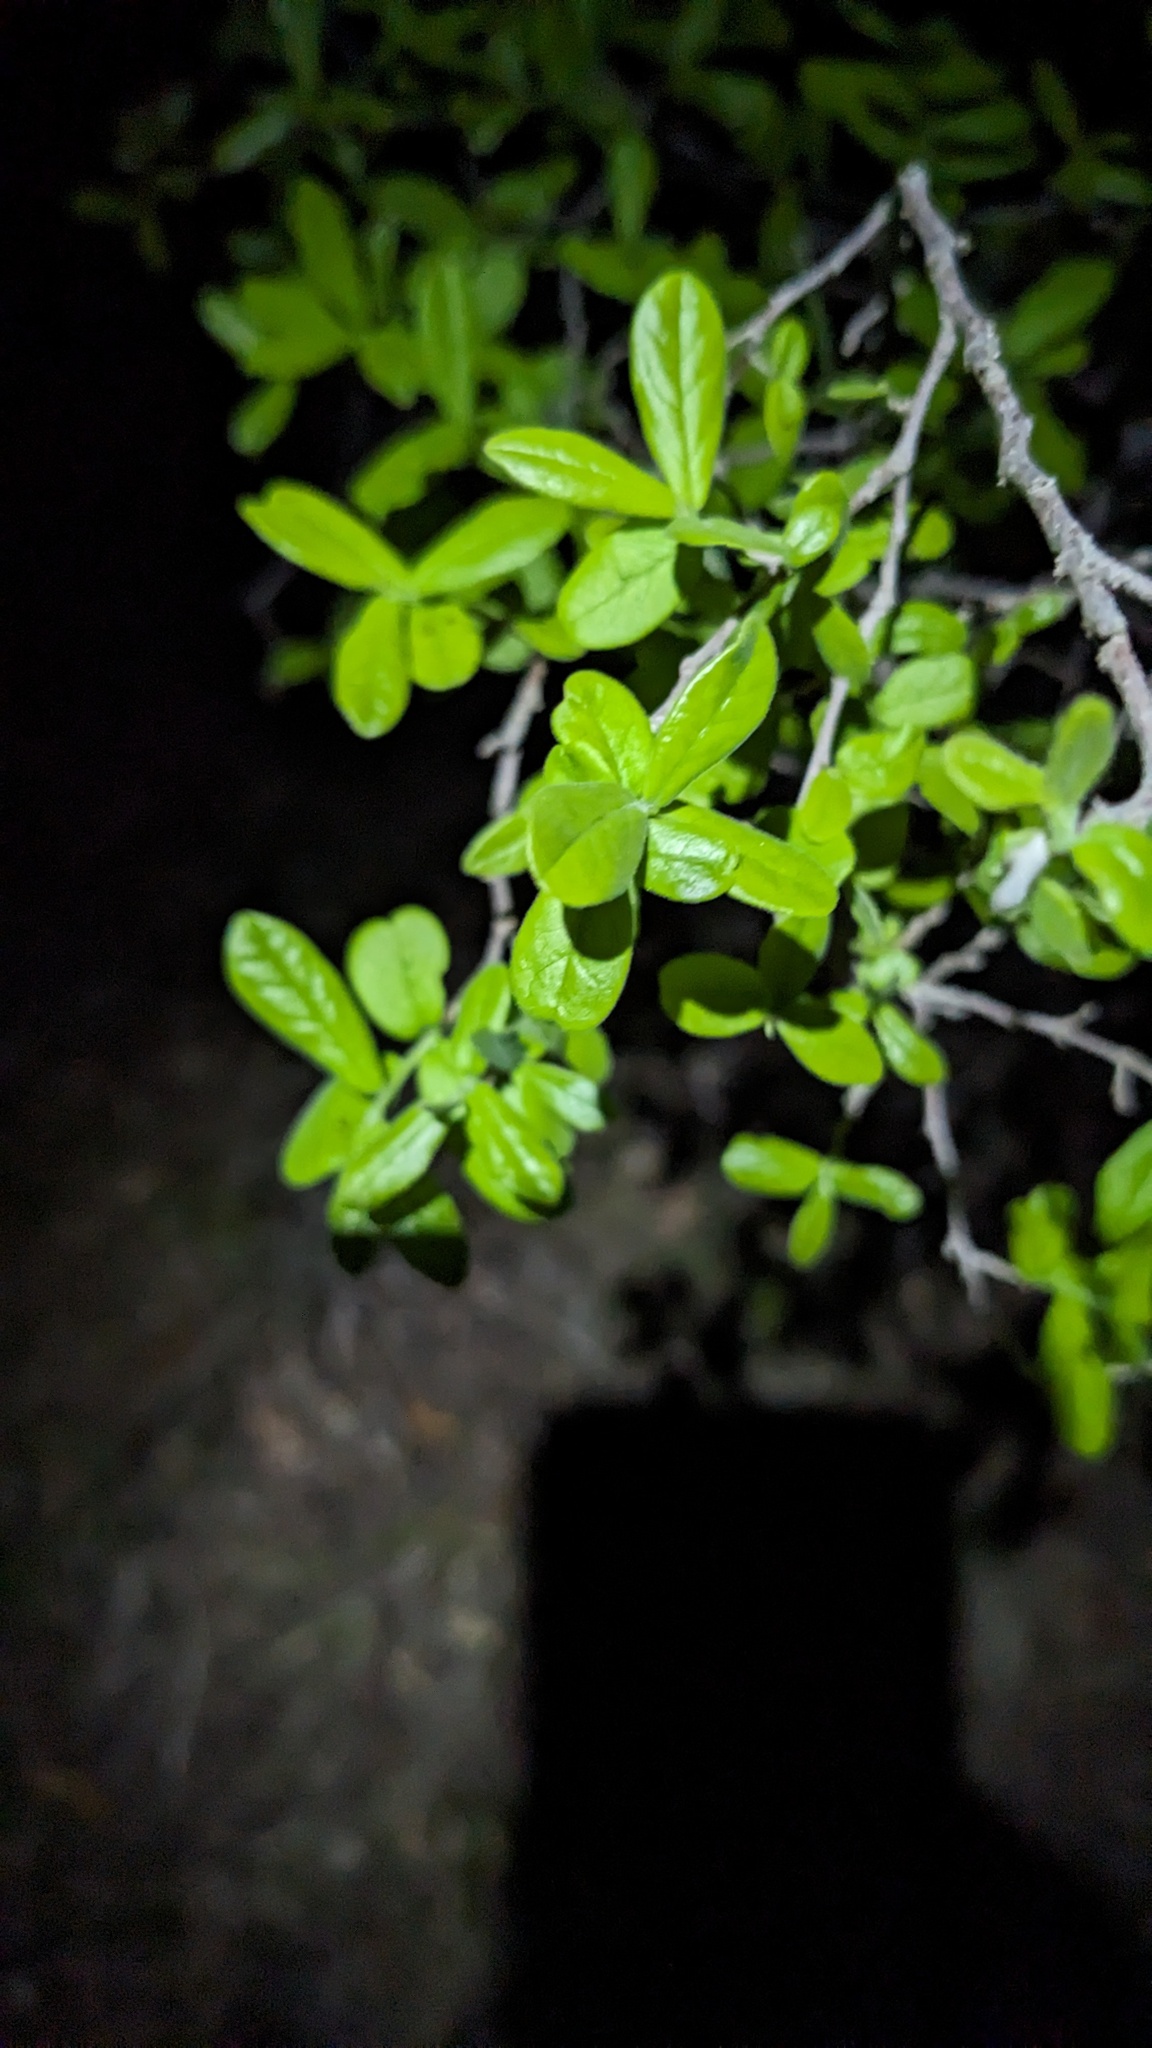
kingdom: Plantae
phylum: Tracheophyta
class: Magnoliopsida
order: Ericales
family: Ebenaceae
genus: Diospyros
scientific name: Diospyros texana
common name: Texas persimmon
